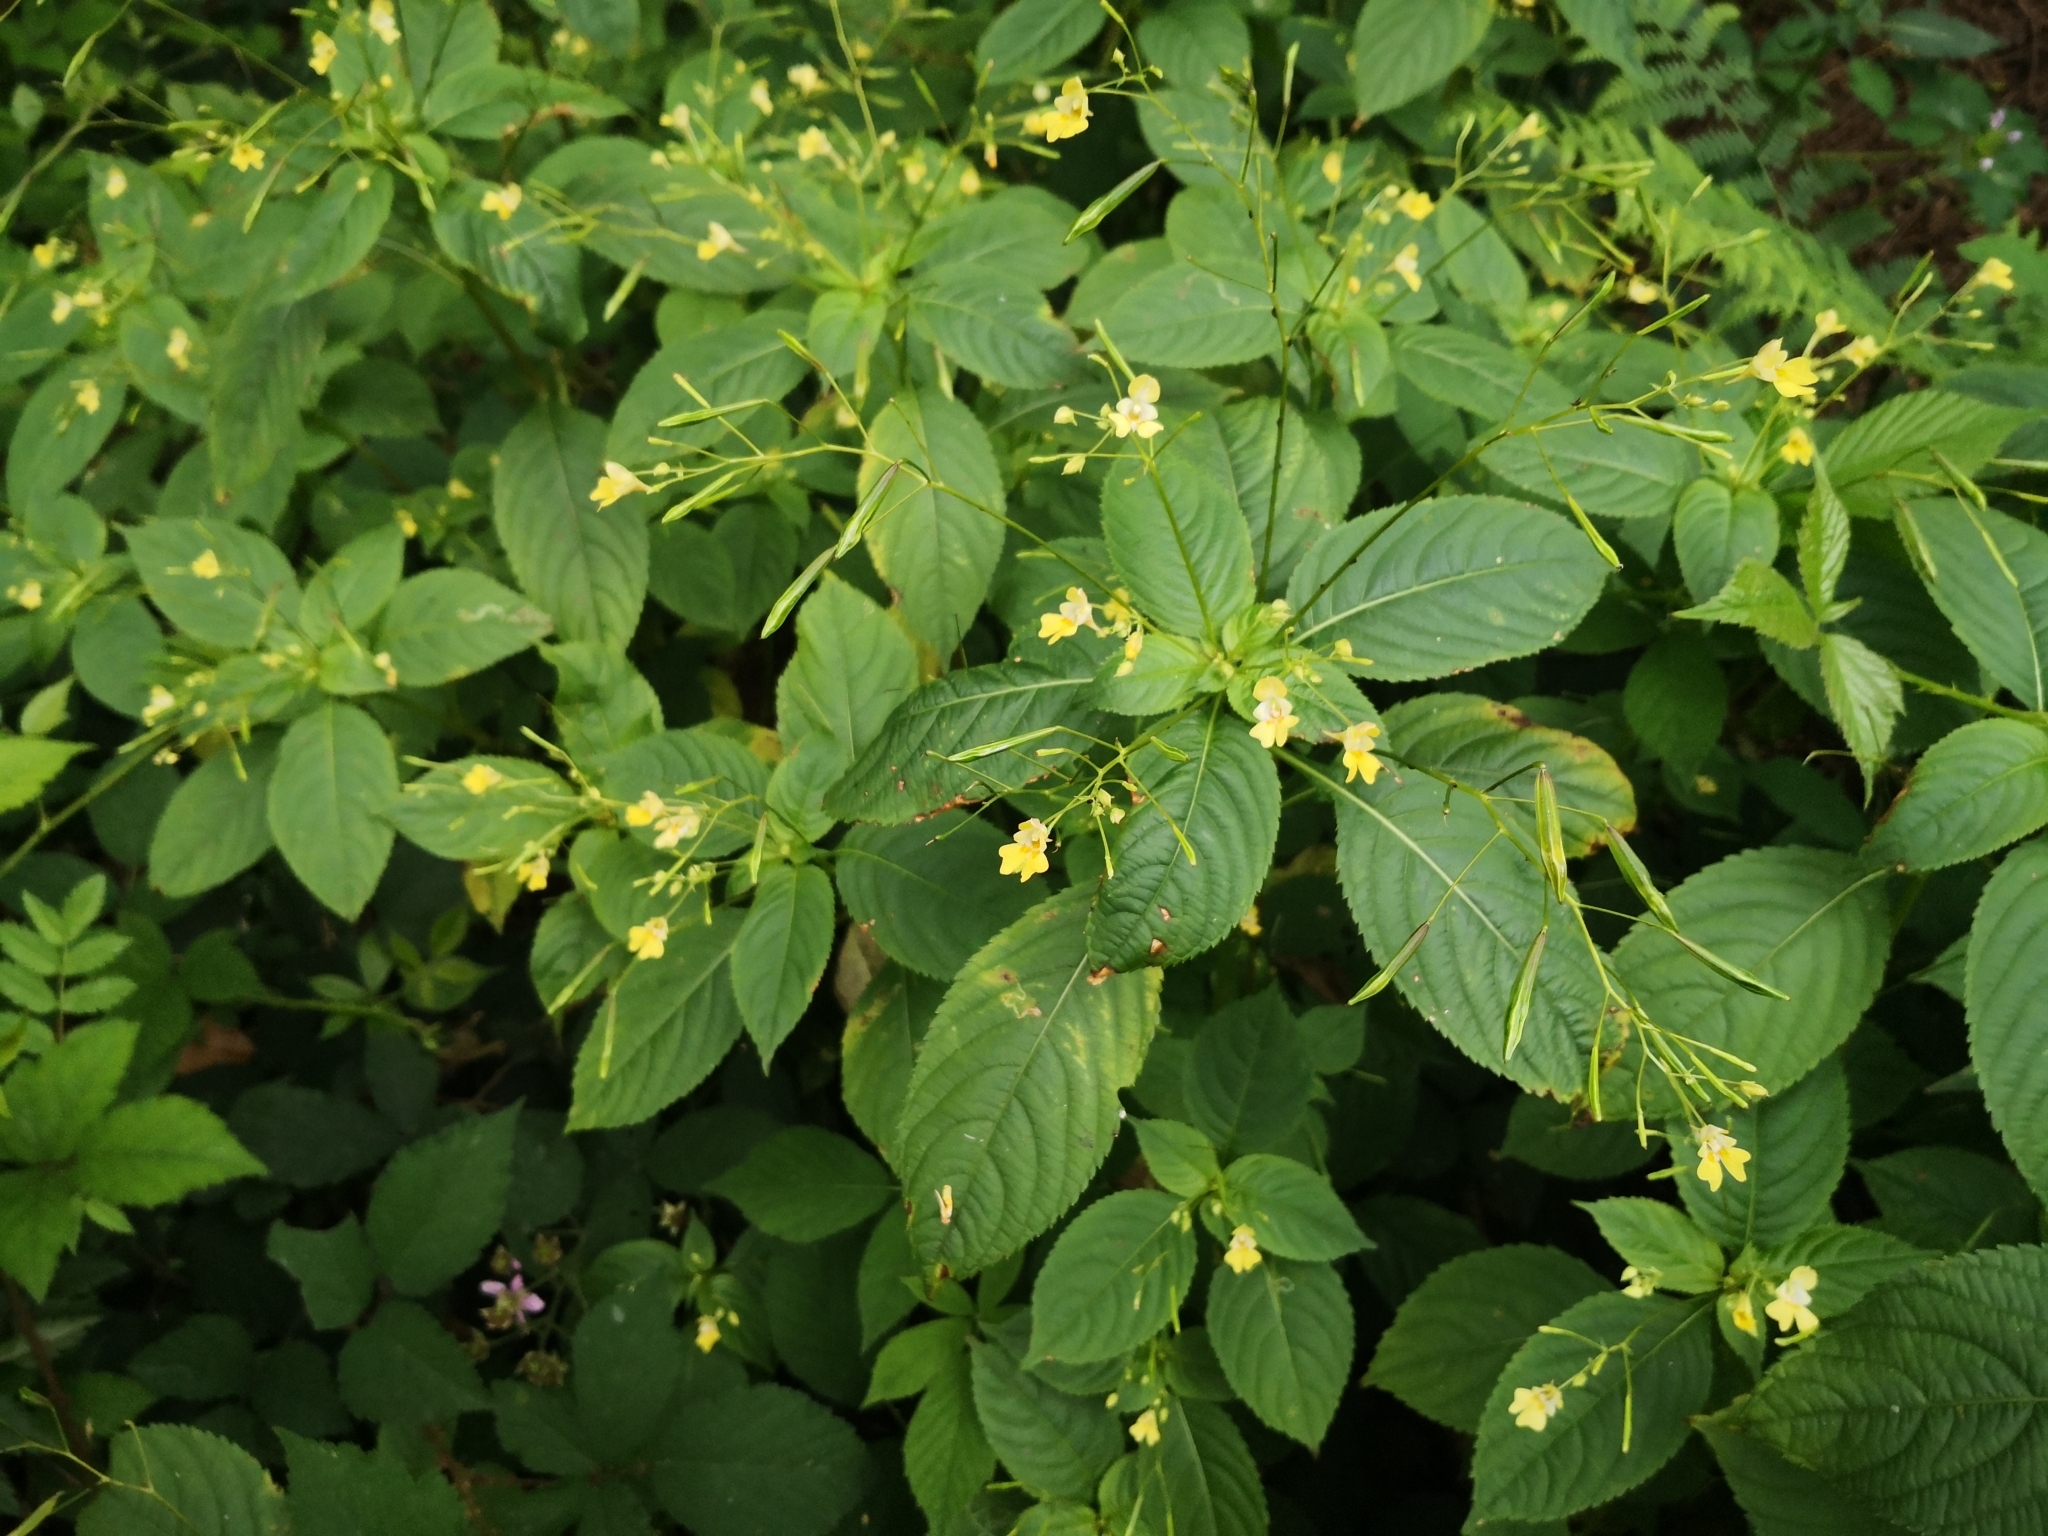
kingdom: Plantae
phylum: Tracheophyta
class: Magnoliopsida
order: Ericales
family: Balsaminaceae
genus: Impatiens
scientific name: Impatiens parviflora
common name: Small balsam
